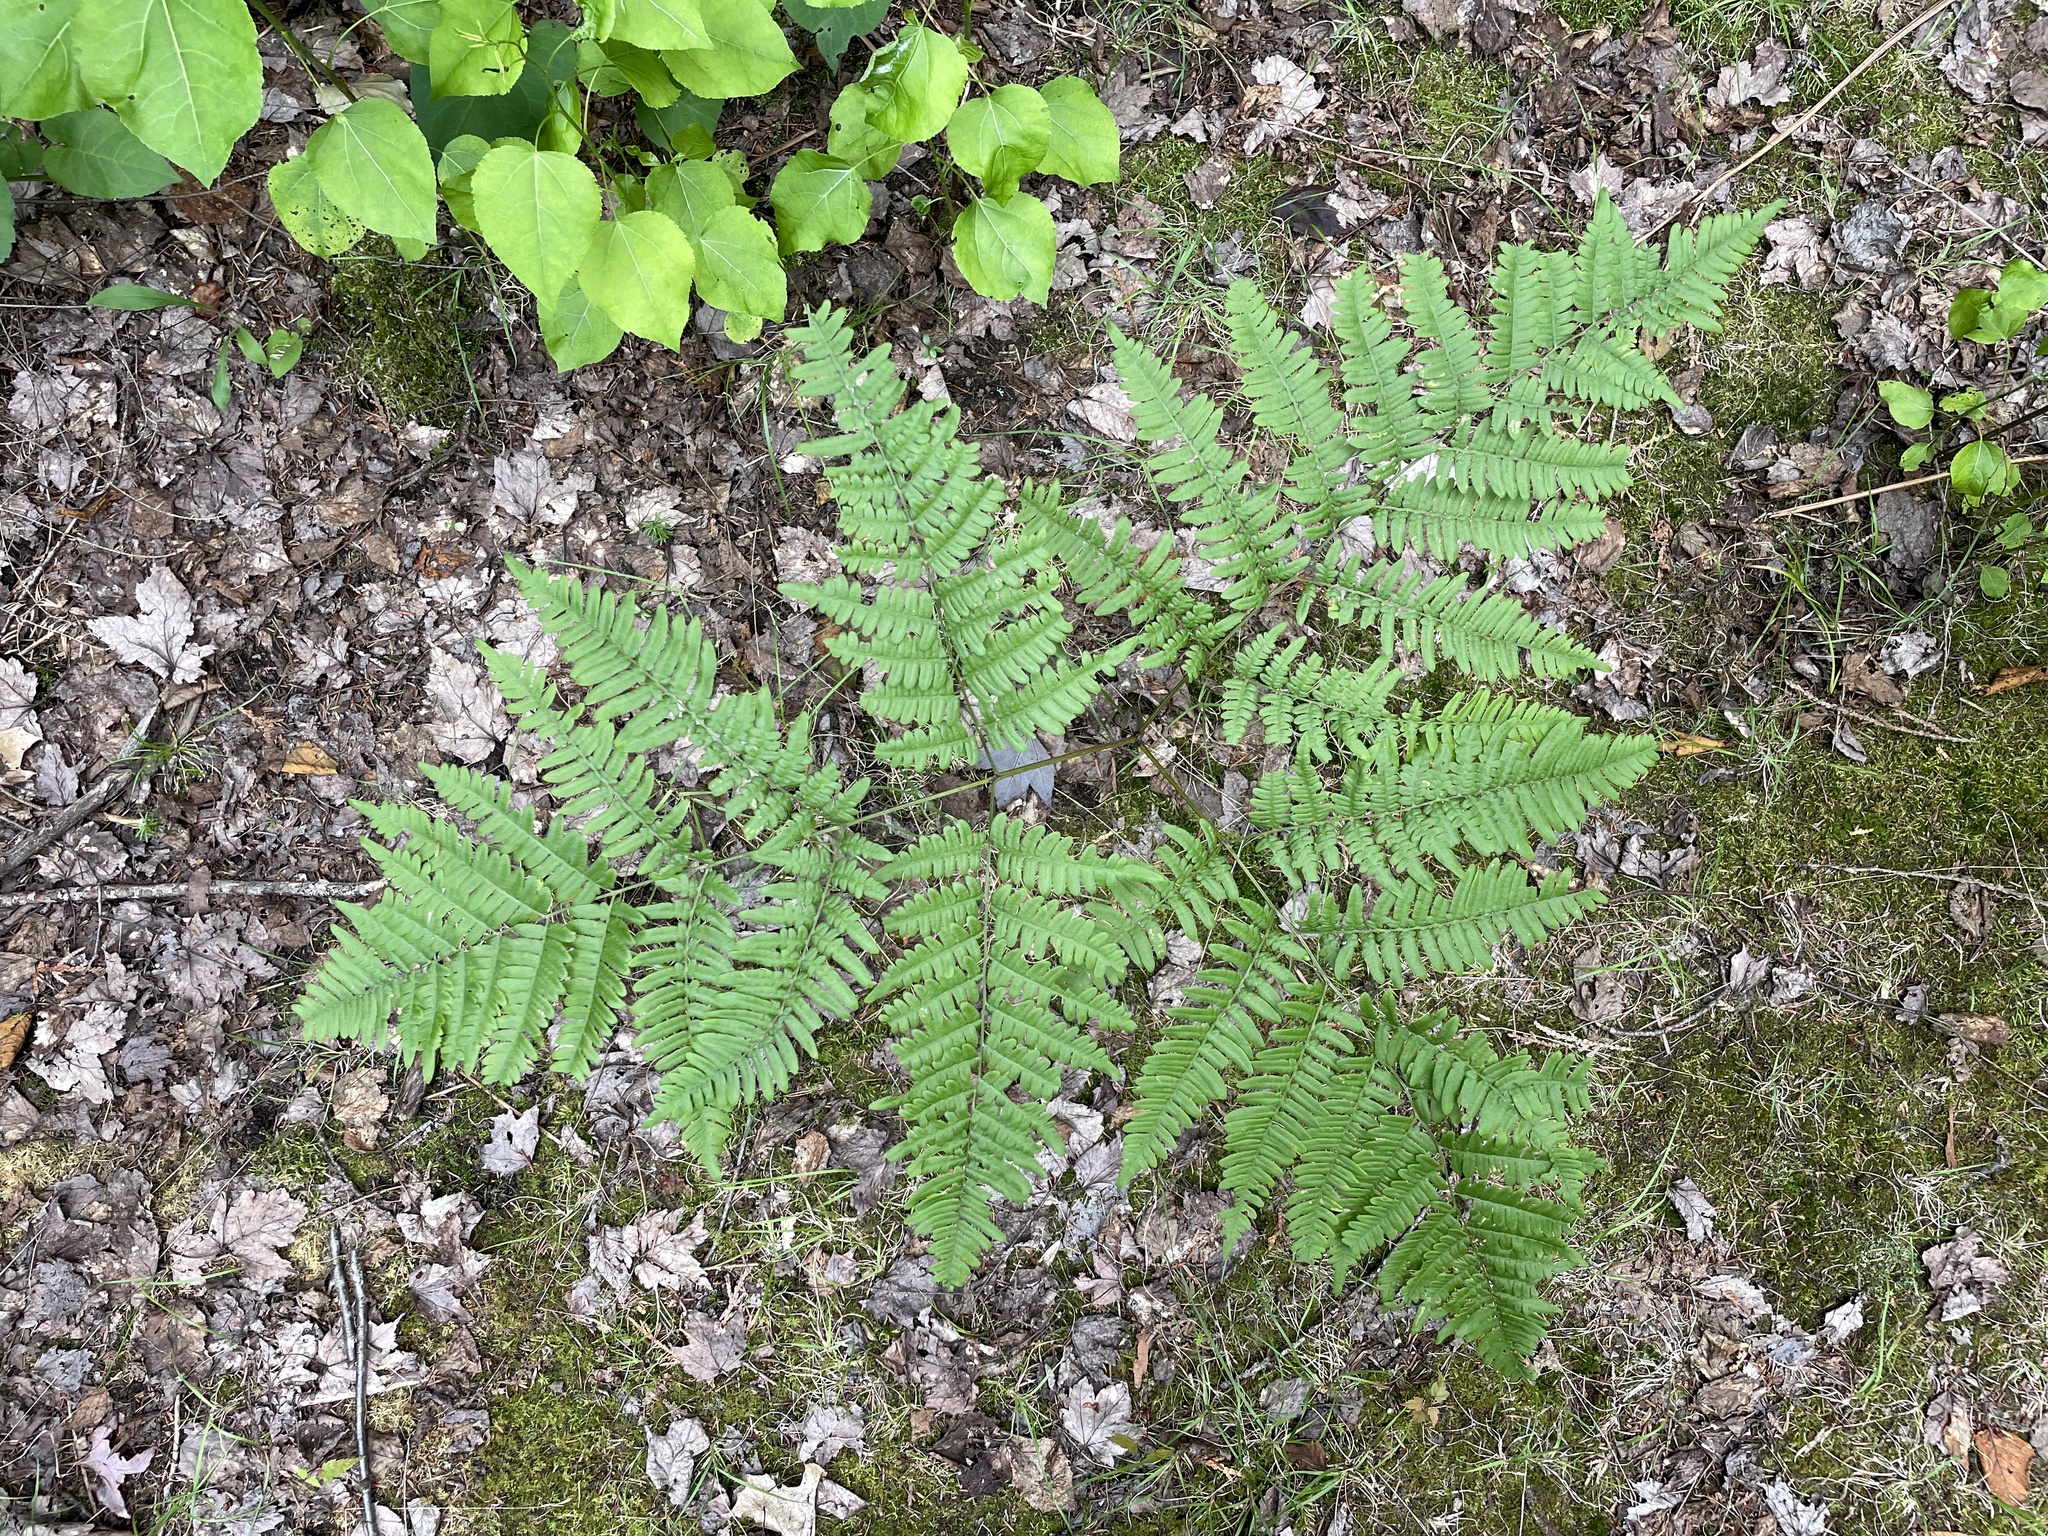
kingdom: Plantae
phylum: Tracheophyta
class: Polypodiopsida
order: Polypodiales
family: Dennstaedtiaceae
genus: Pteridium
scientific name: Pteridium aquilinum
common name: Bracken
